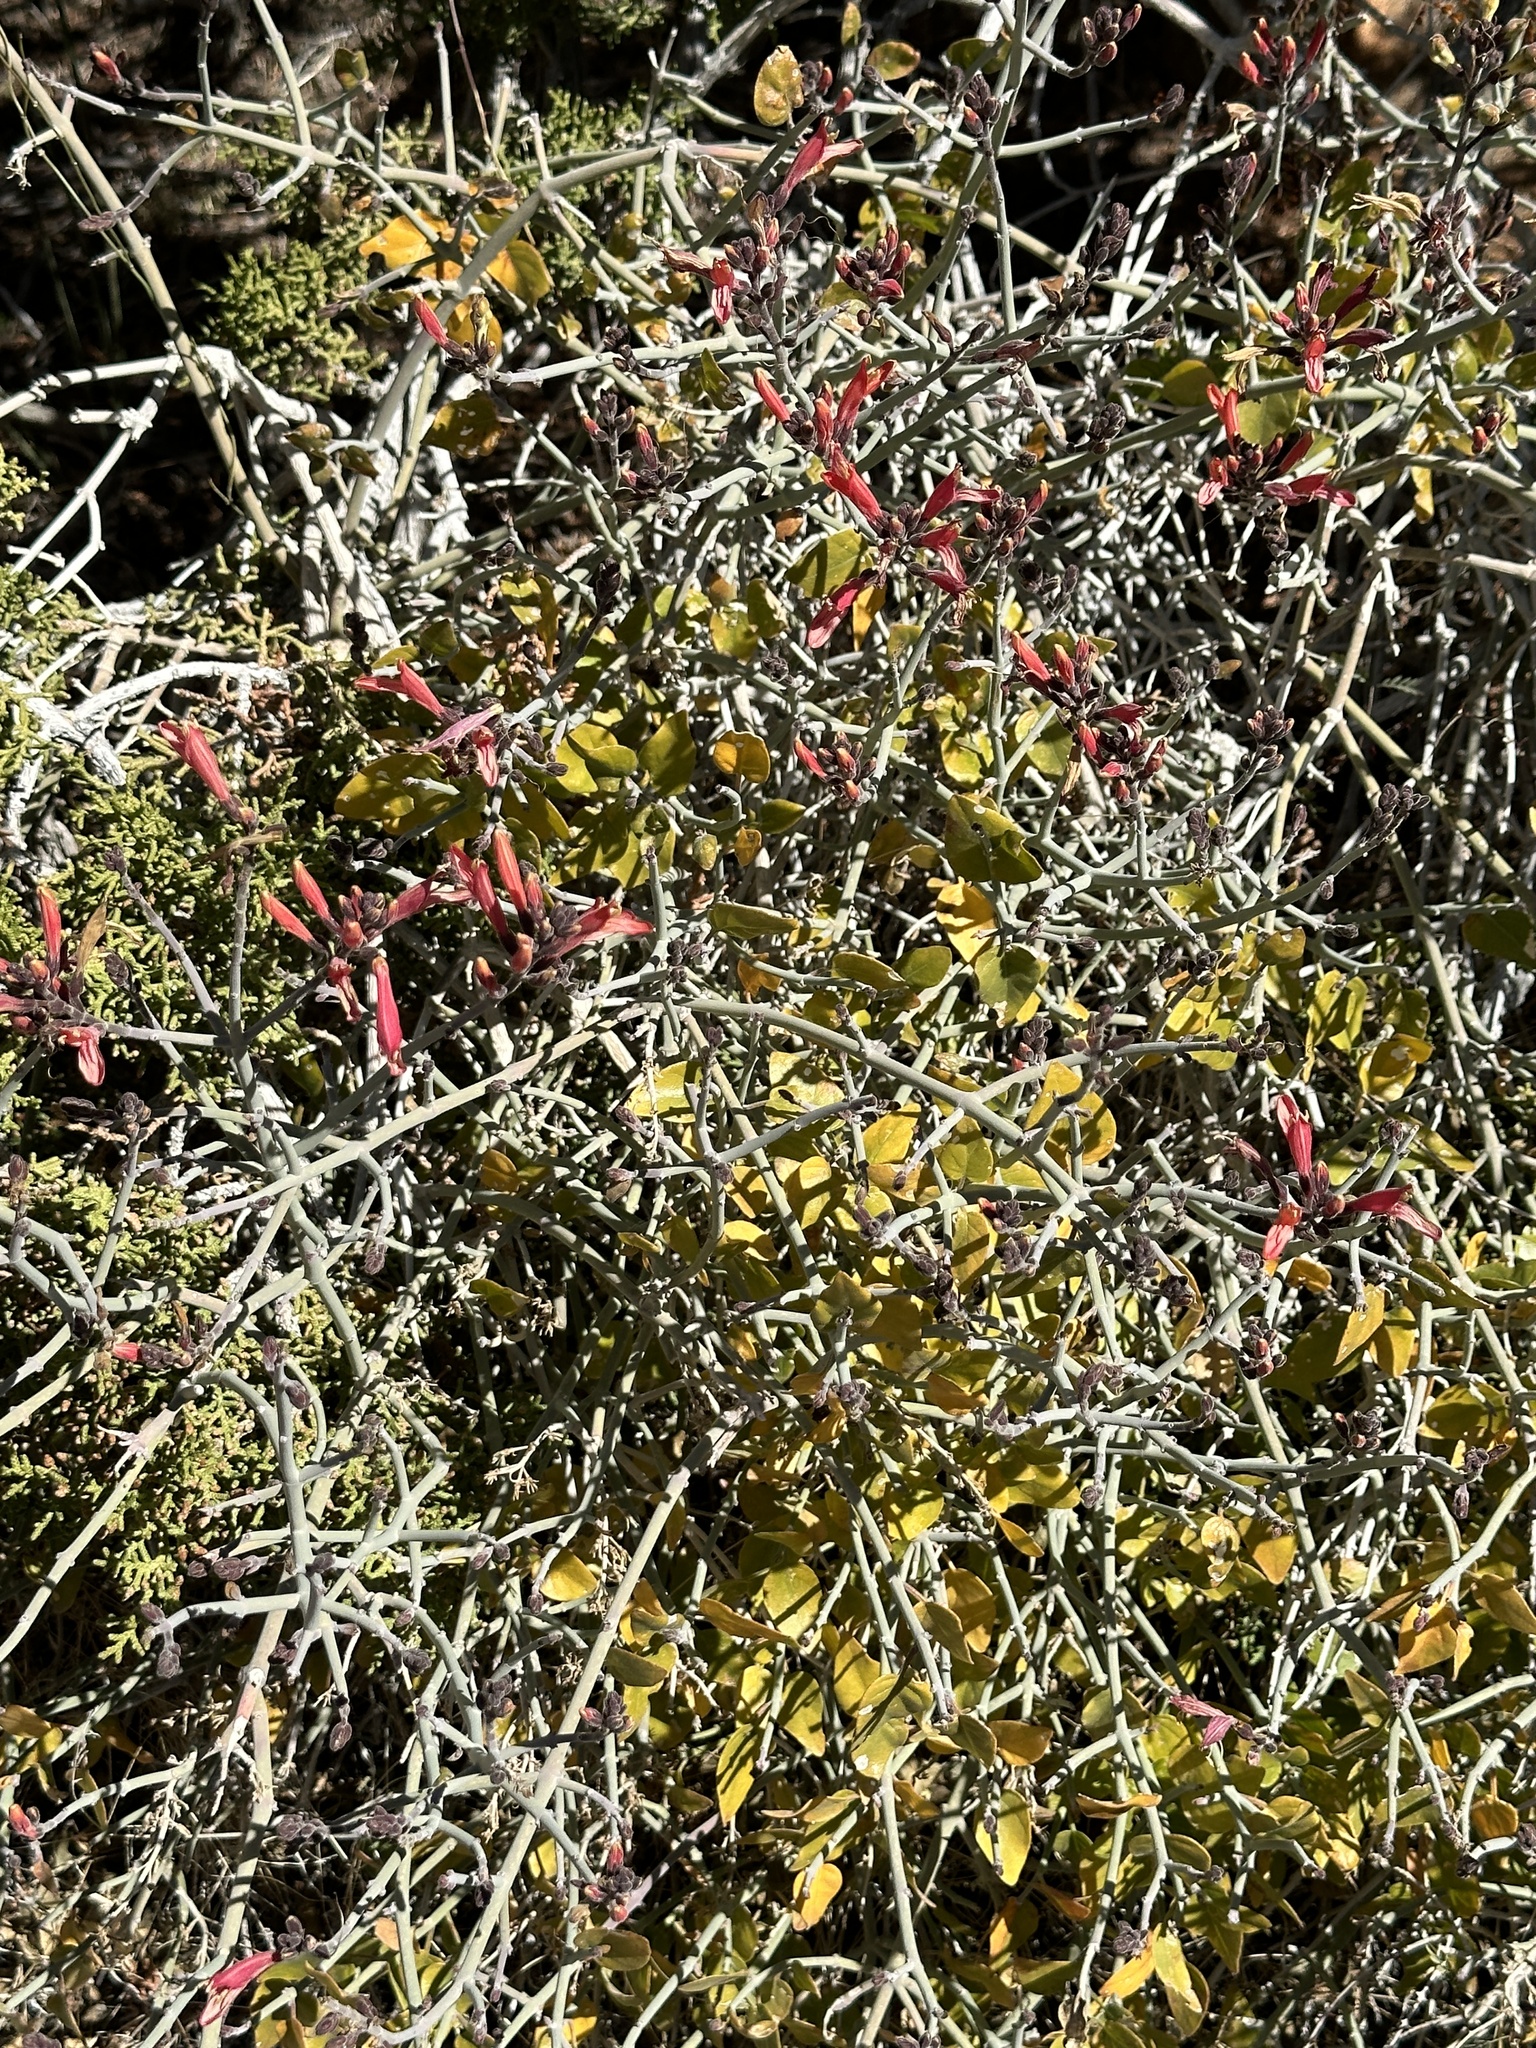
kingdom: Plantae
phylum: Tracheophyta
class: Magnoliopsida
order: Lamiales
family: Acanthaceae
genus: Justicia
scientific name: Justicia californica
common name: Chuparosa-honeysuckle
